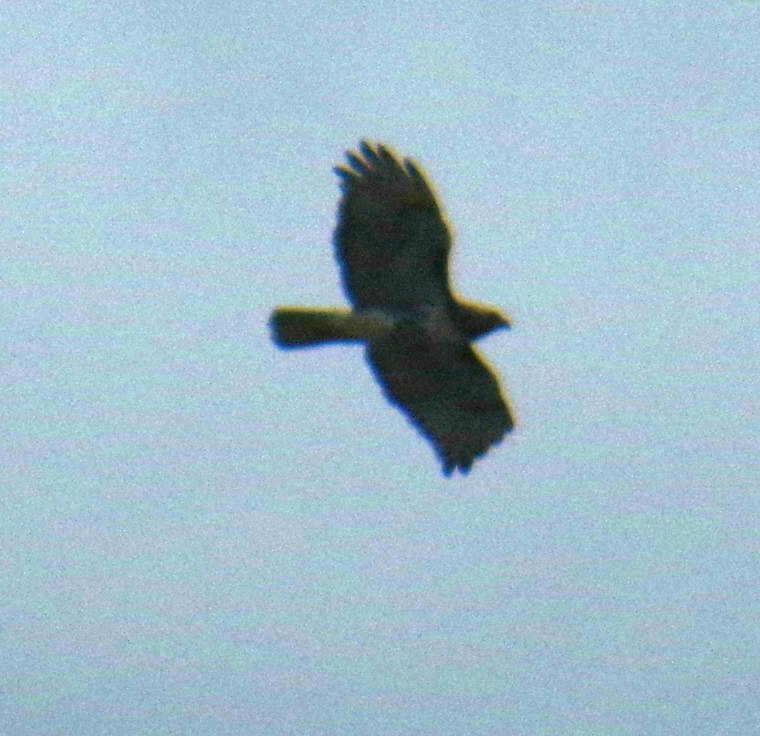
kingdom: Animalia
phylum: Chordata
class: Aves
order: Accipitriformes
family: Accipitridae
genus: Buteo
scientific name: Buteo jamaicensis
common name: Red-tailed hawk
